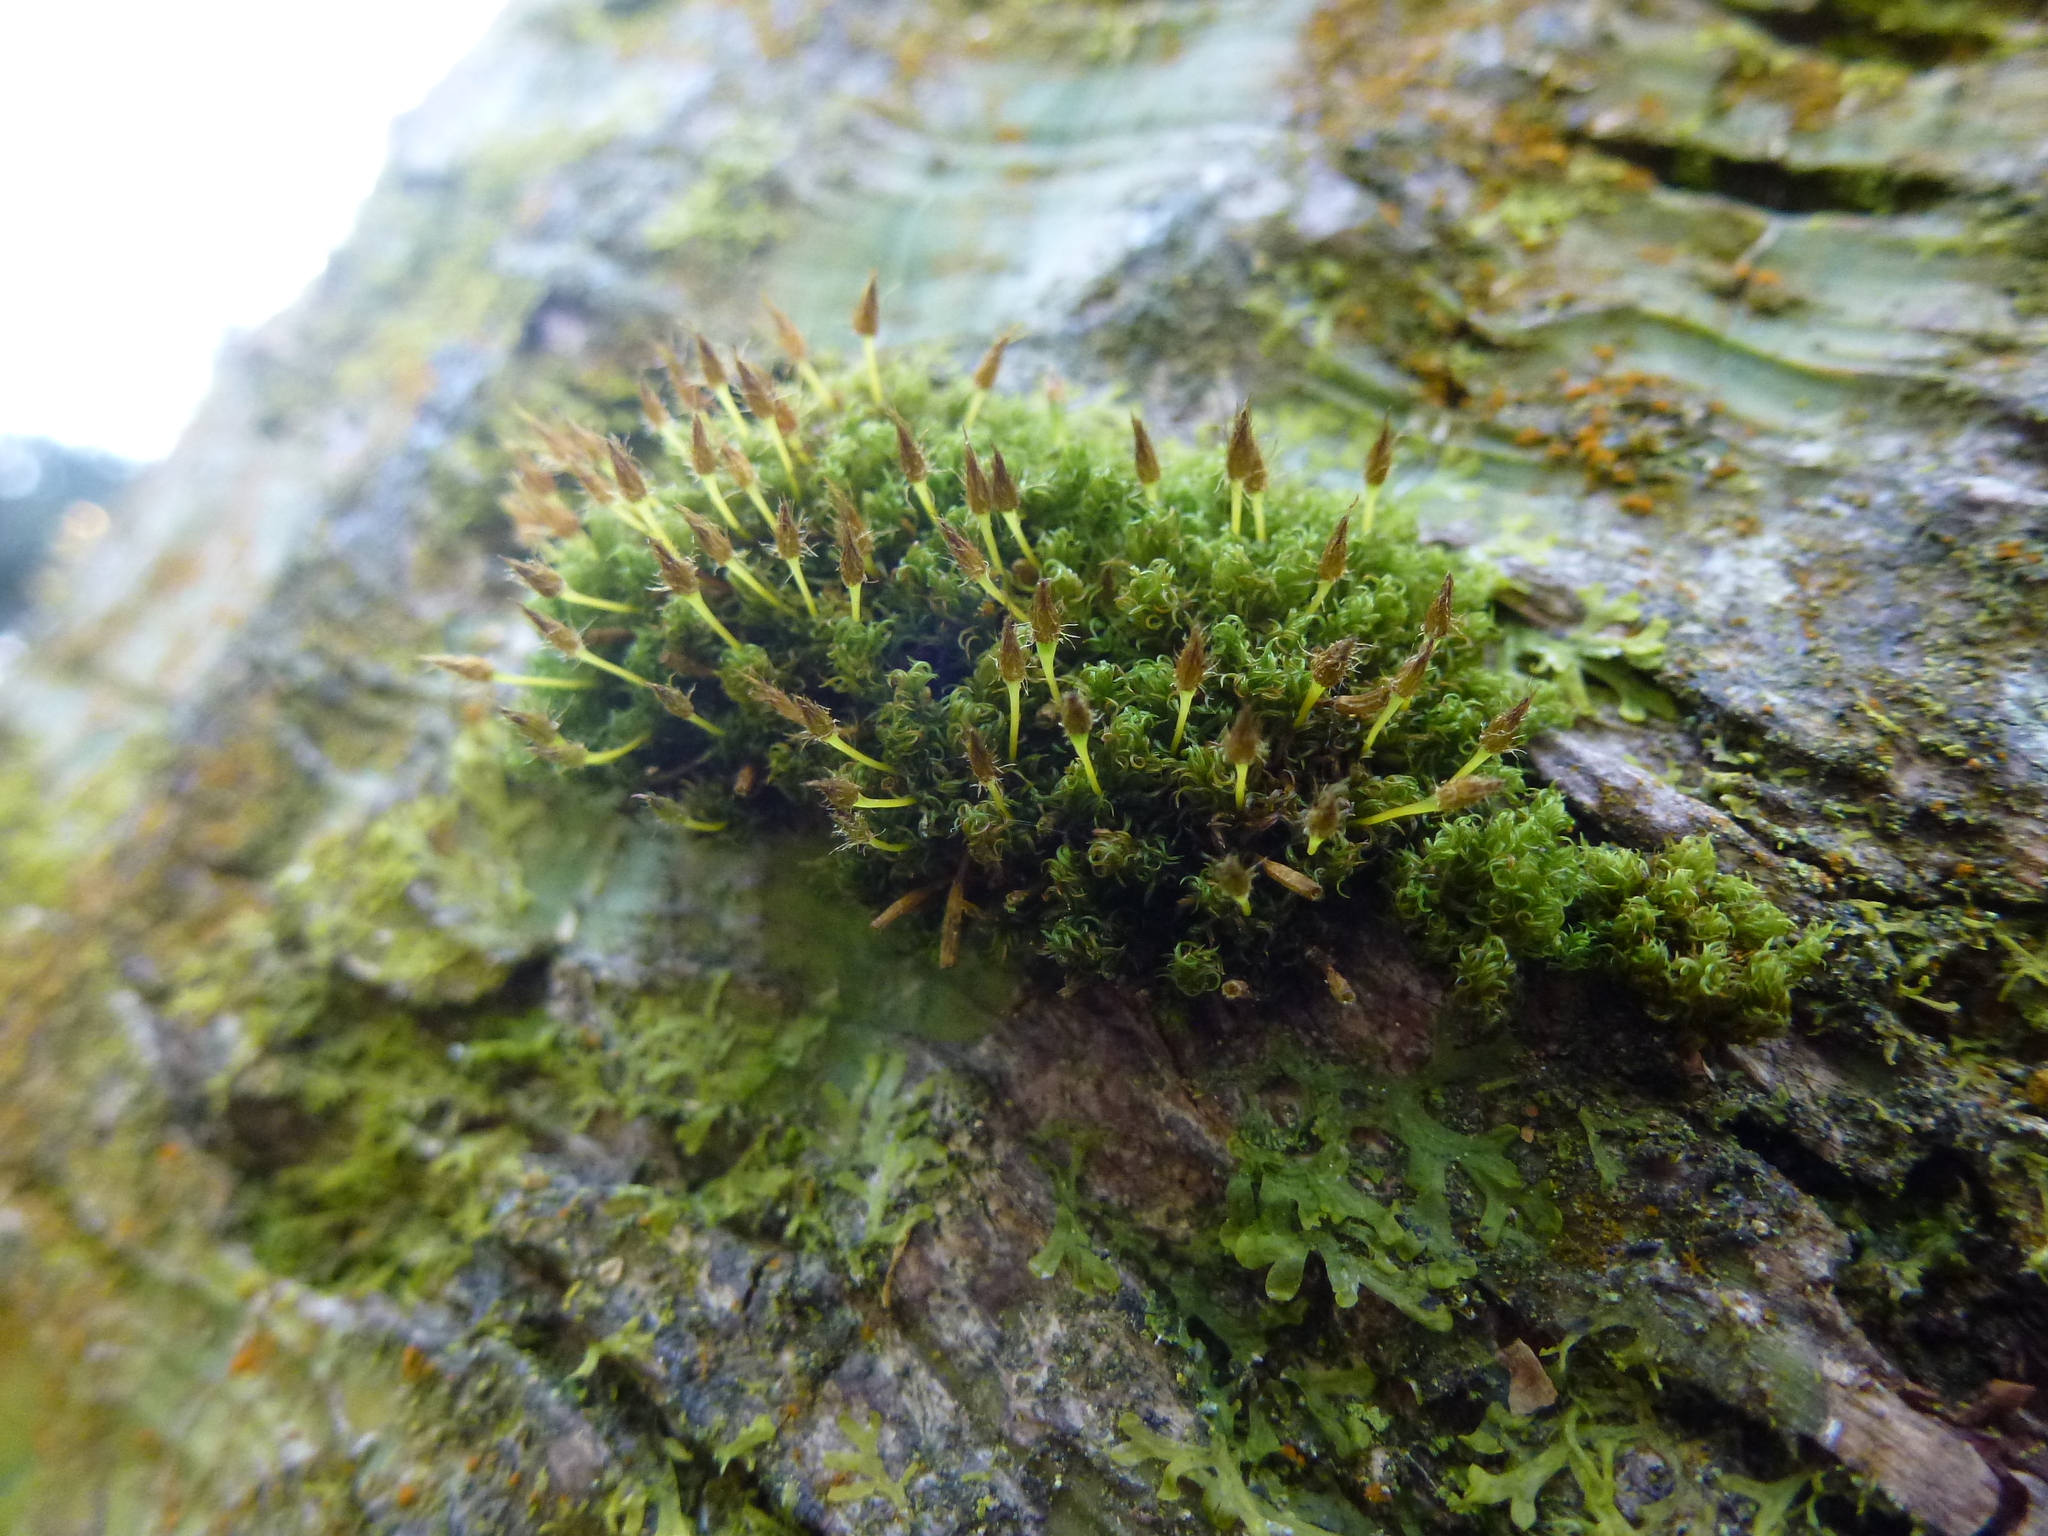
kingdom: Plantae
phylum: Bryophyta
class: Bryopsida
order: Orthotrichales
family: Orthotrichaceae
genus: Ulota
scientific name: Ulota crispa
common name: Crisped pincushion moss
